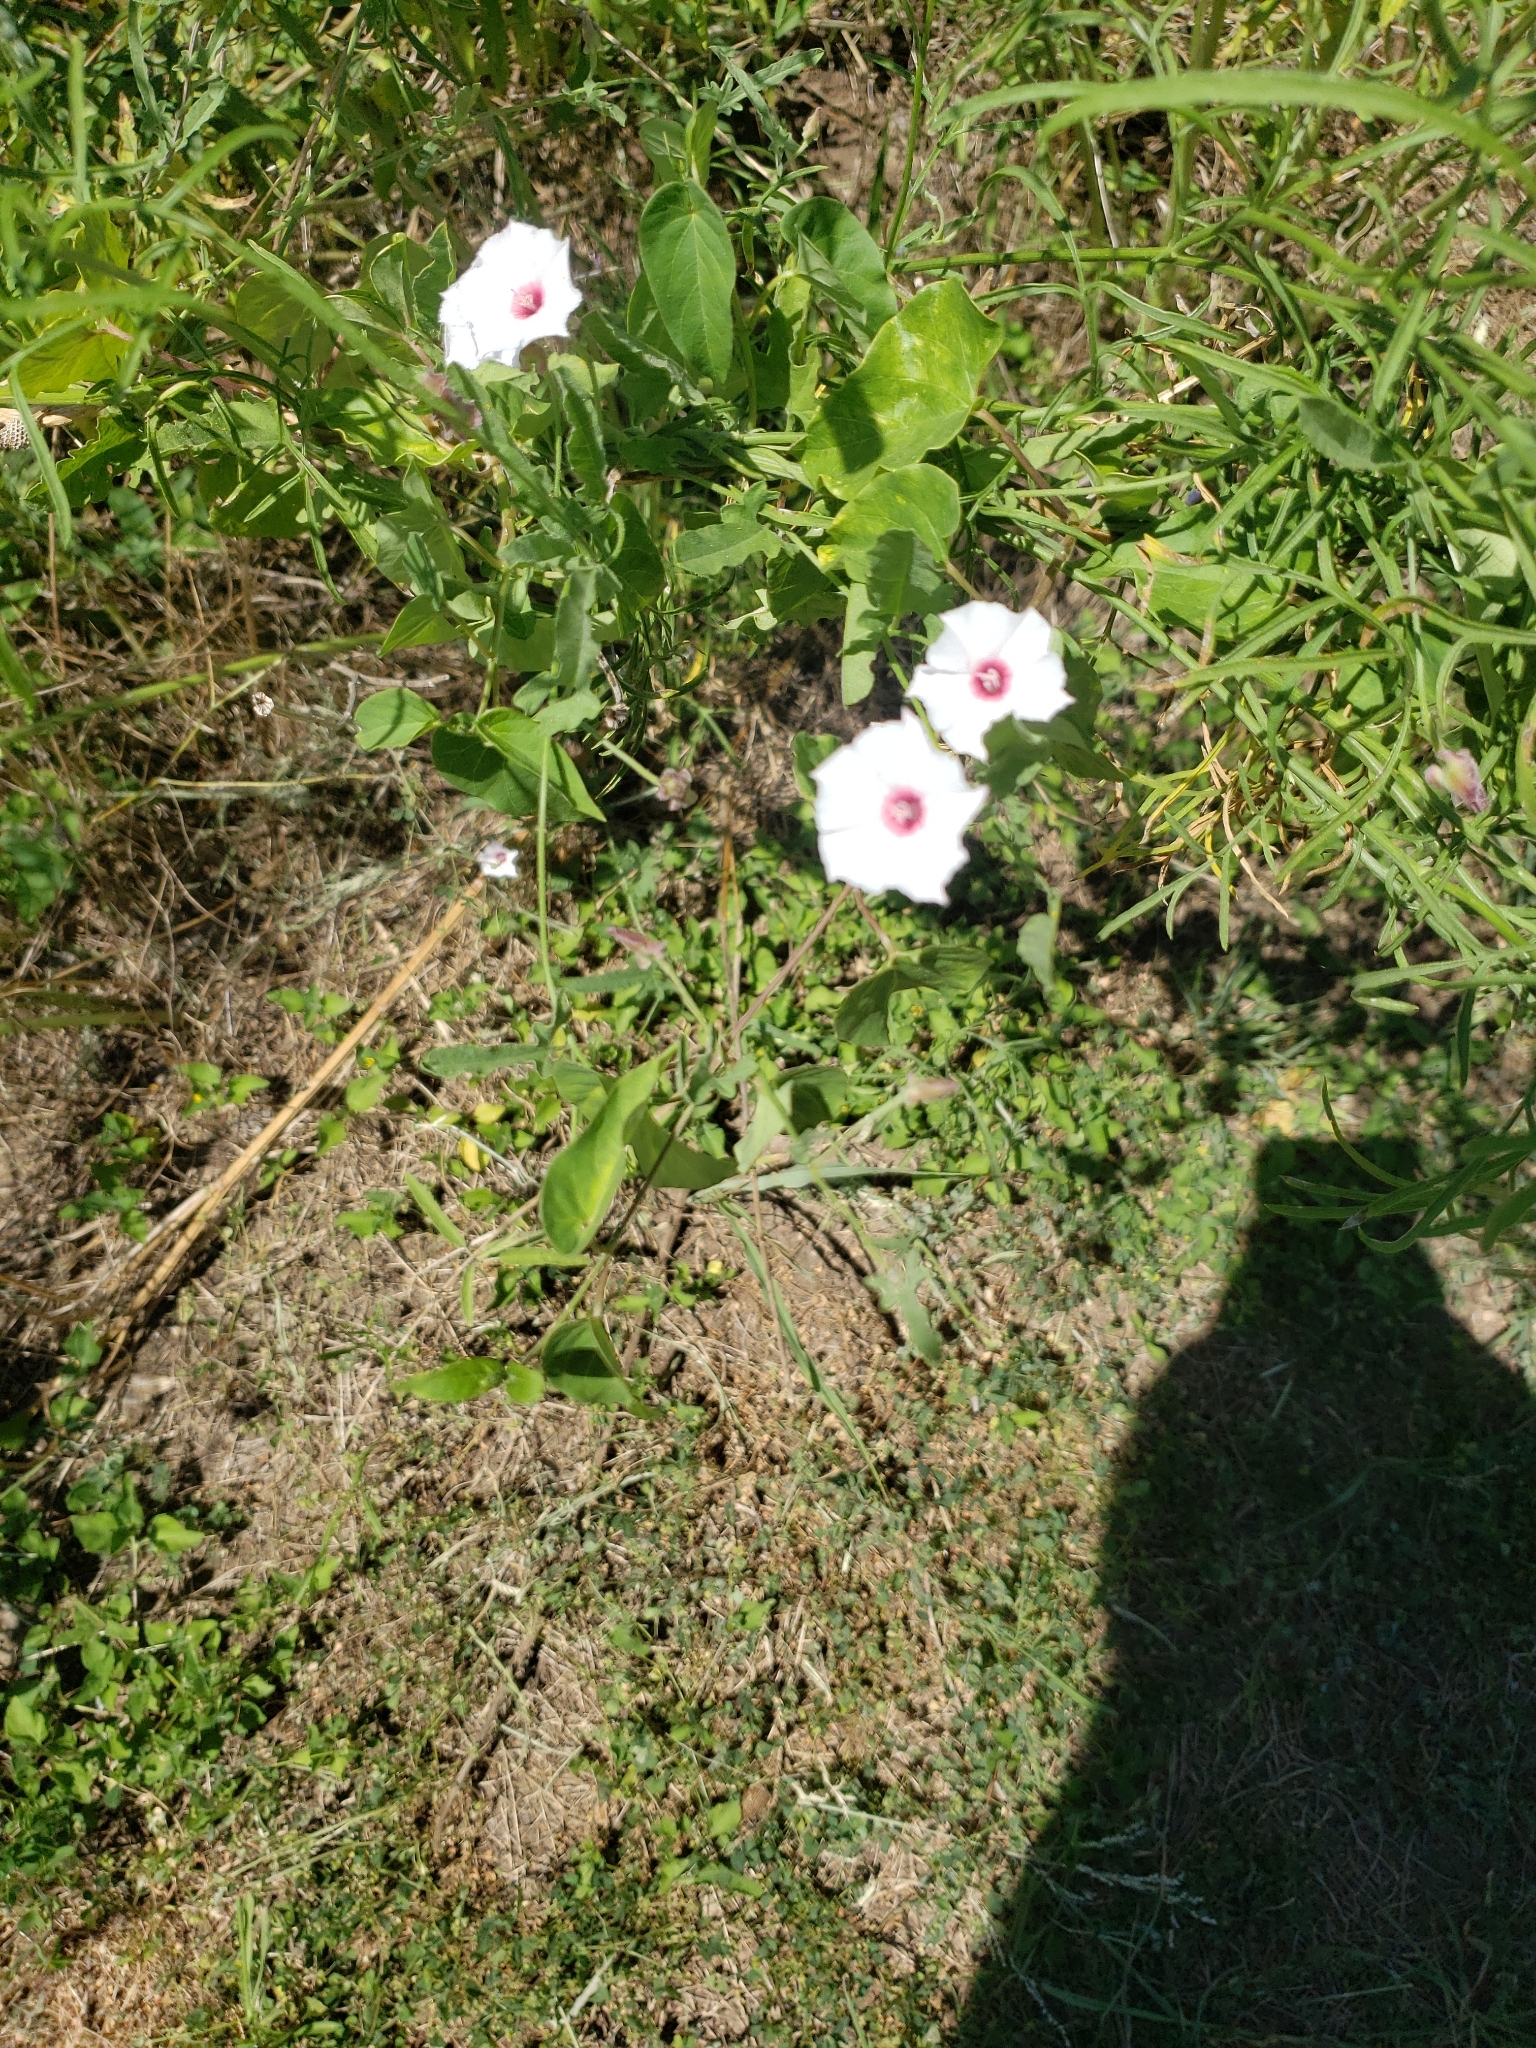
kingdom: Plantae
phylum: Tracheophyta
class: Magnoliopsida
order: Solanales
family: Convolvulaceae
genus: Convolvulus
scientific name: Convolvulus equitans
